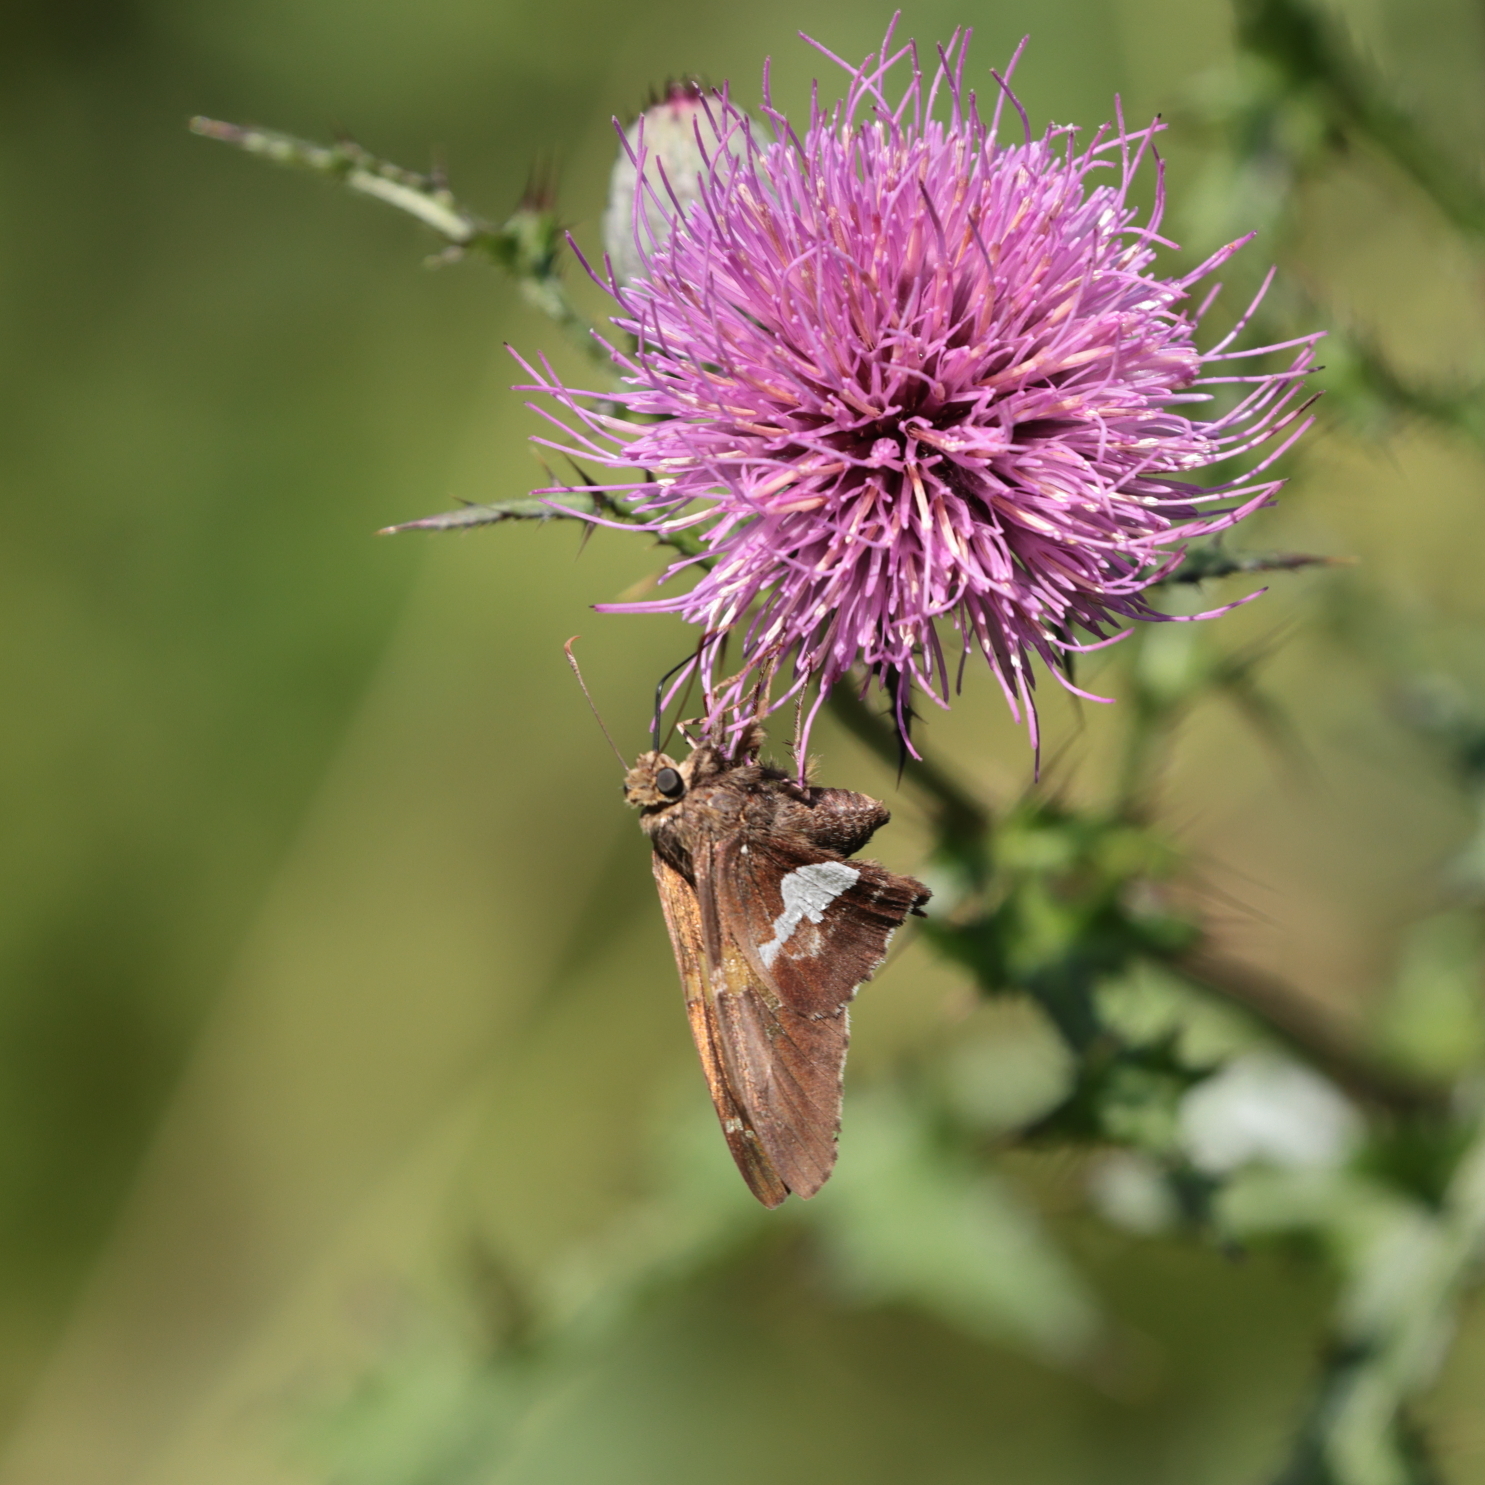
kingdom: Animalia
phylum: Arthropoda
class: Insecta
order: Lepidoptera
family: Hesperiidae
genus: Epargyreus
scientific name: Epargyreus clarus
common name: Silver-spotted skipper
